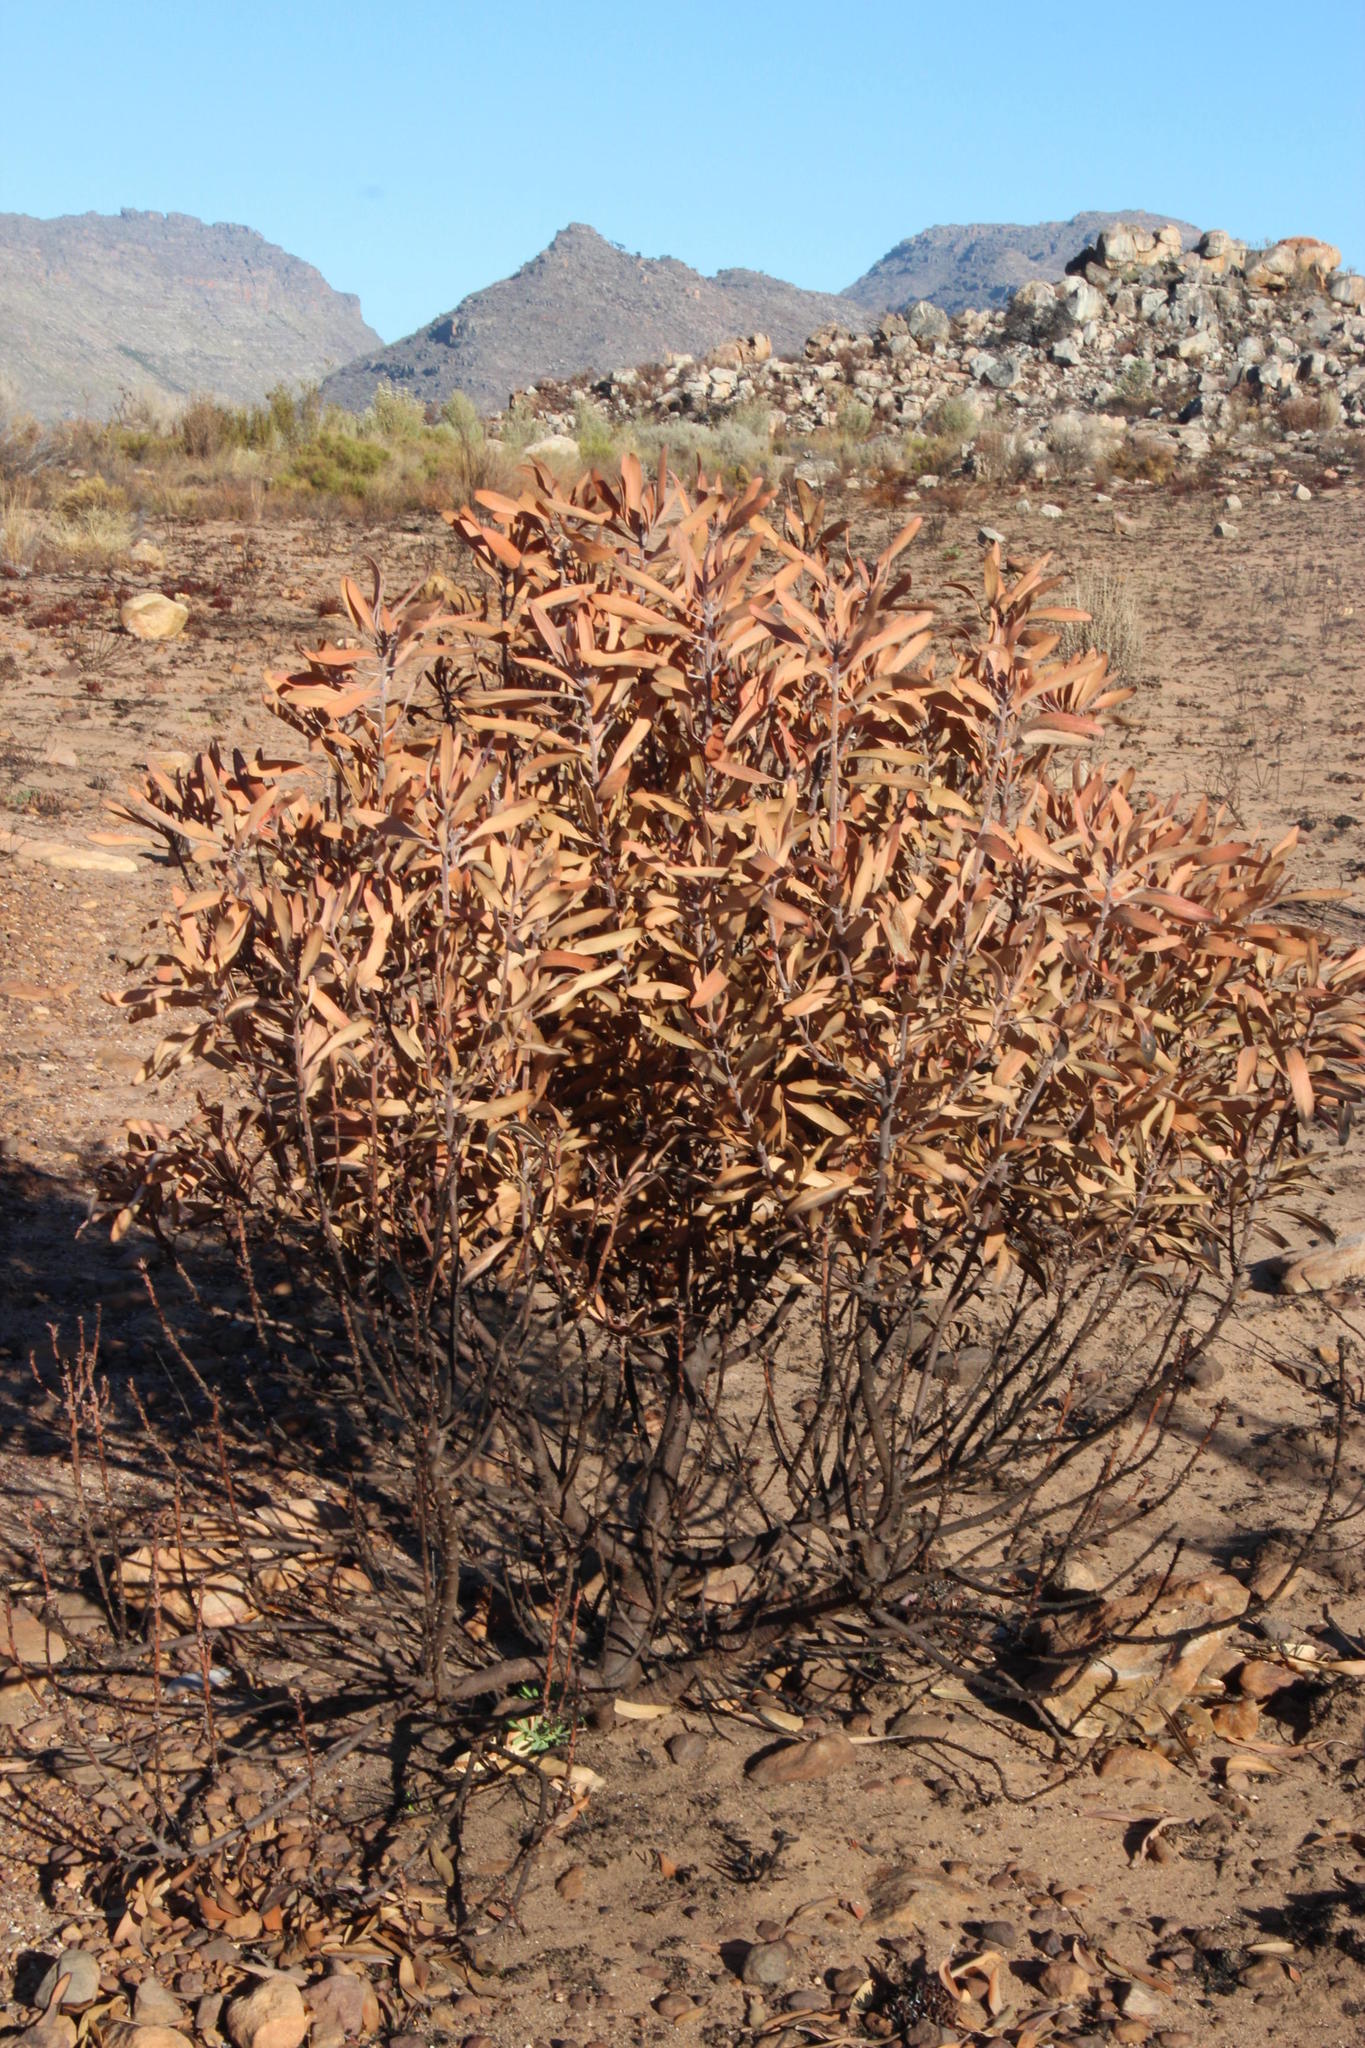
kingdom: Plantae
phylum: Tracheophyta
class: Magnoliopsida
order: Proteales
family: Proteaceae
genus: Protea
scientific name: Protea laurifolia
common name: Grey-leaf sugarbsh
